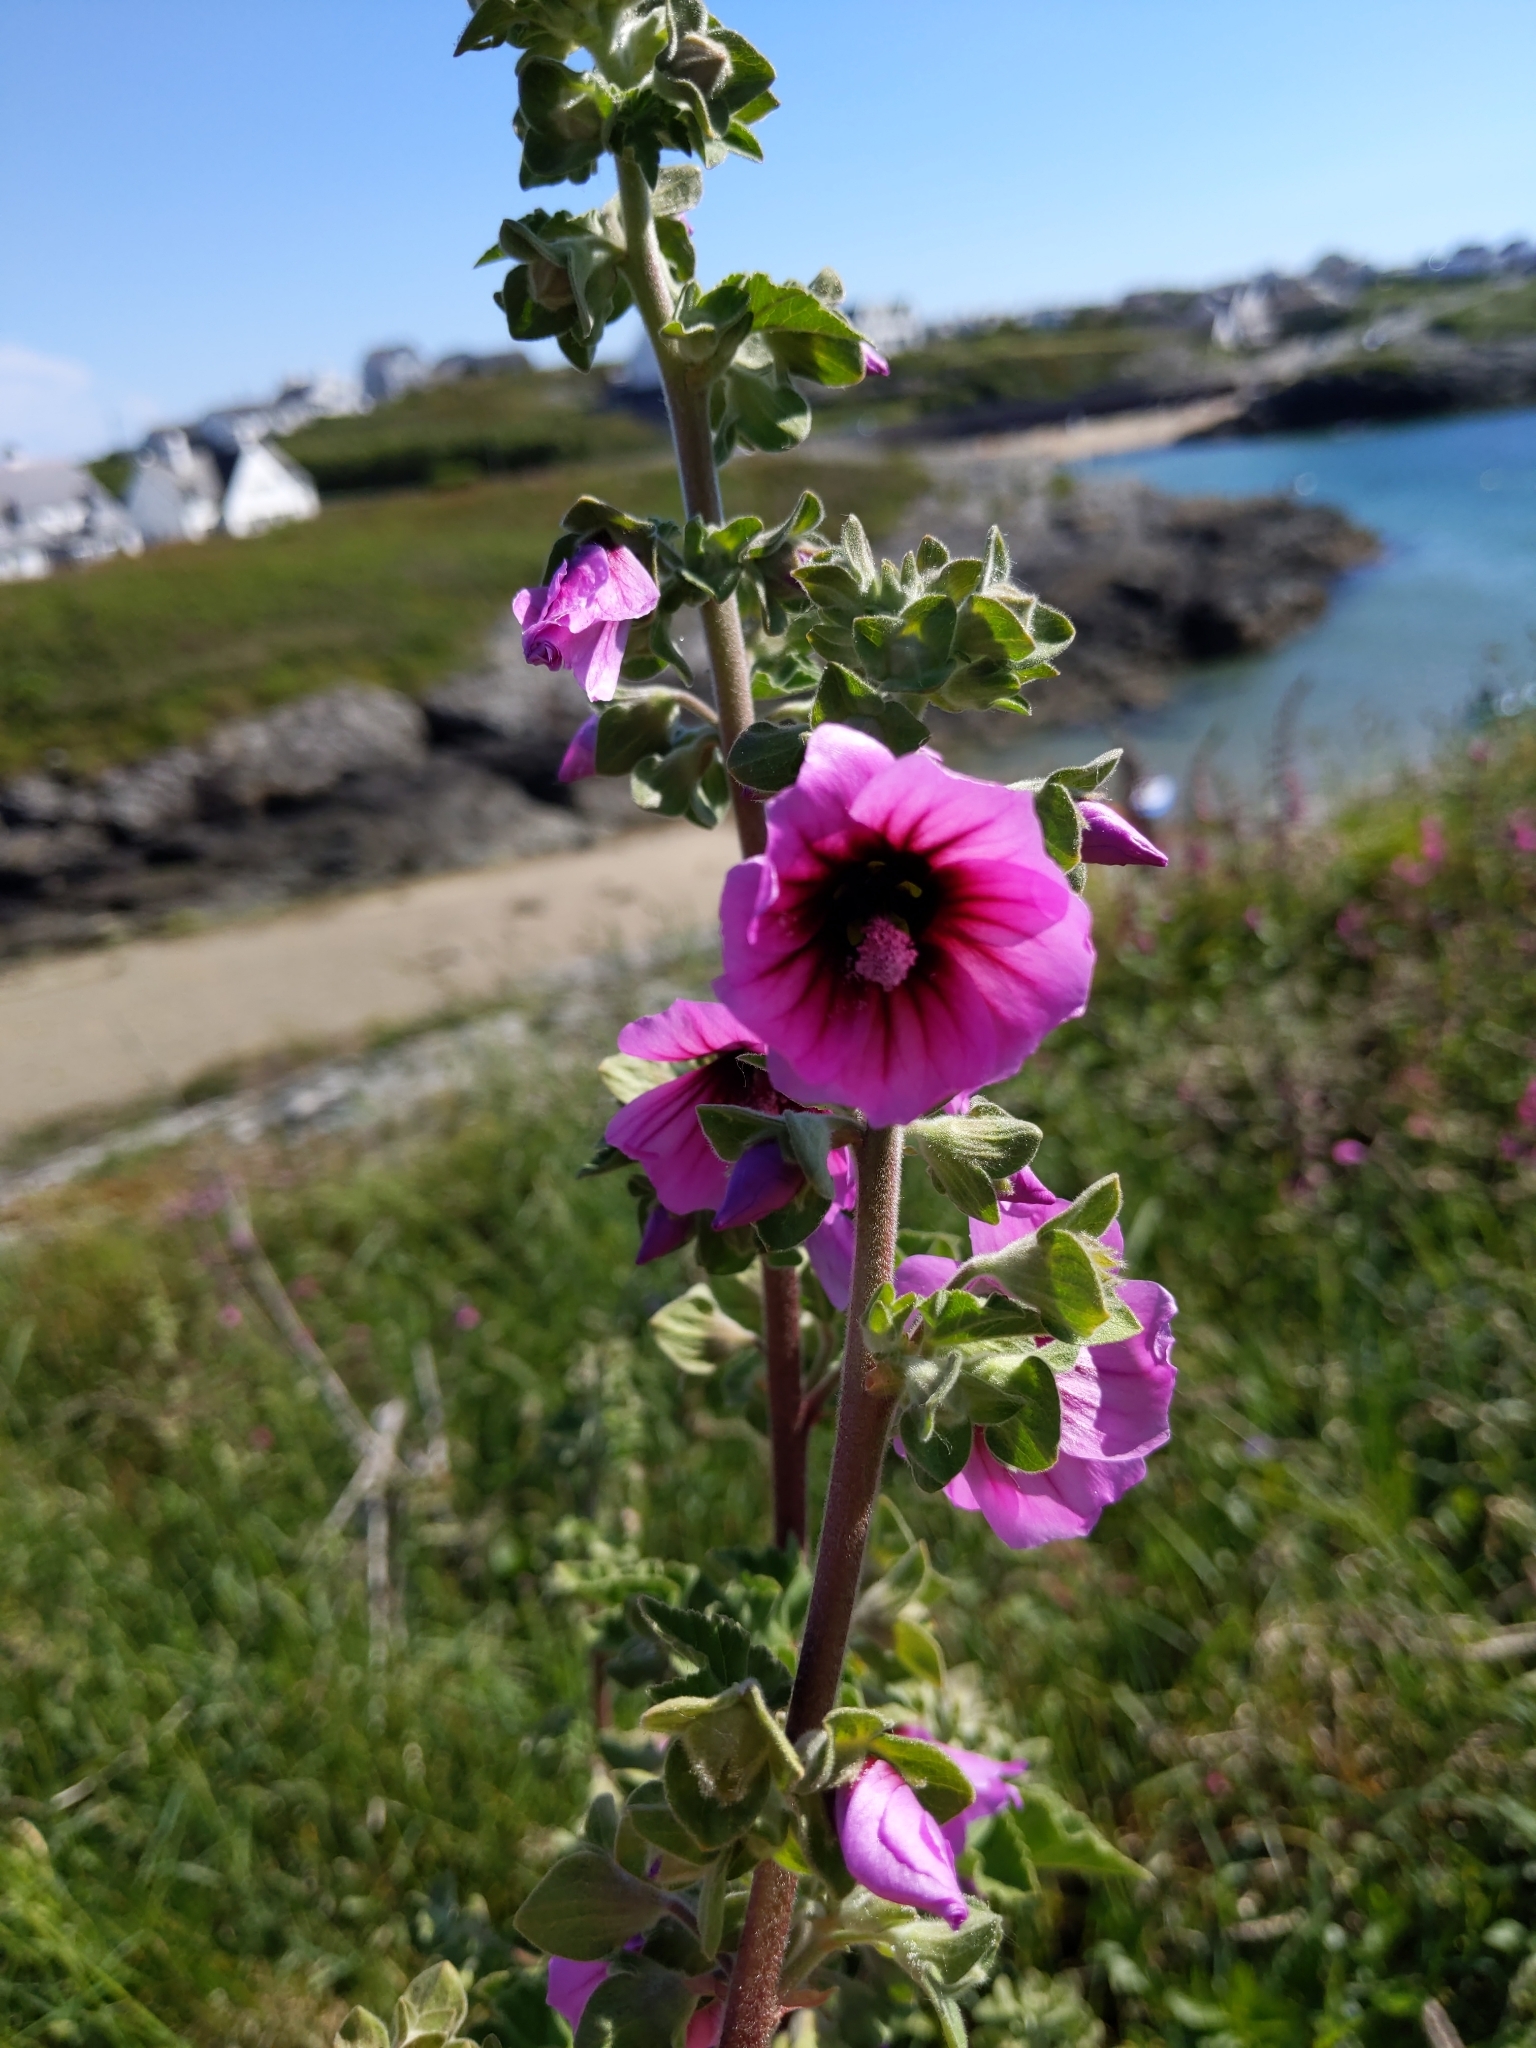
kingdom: Plantae
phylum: Tracheophyta
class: Magnoliopsida
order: Malvales
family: Malvaceae
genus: Malva
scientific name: Malva arborea
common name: Tree mallow
